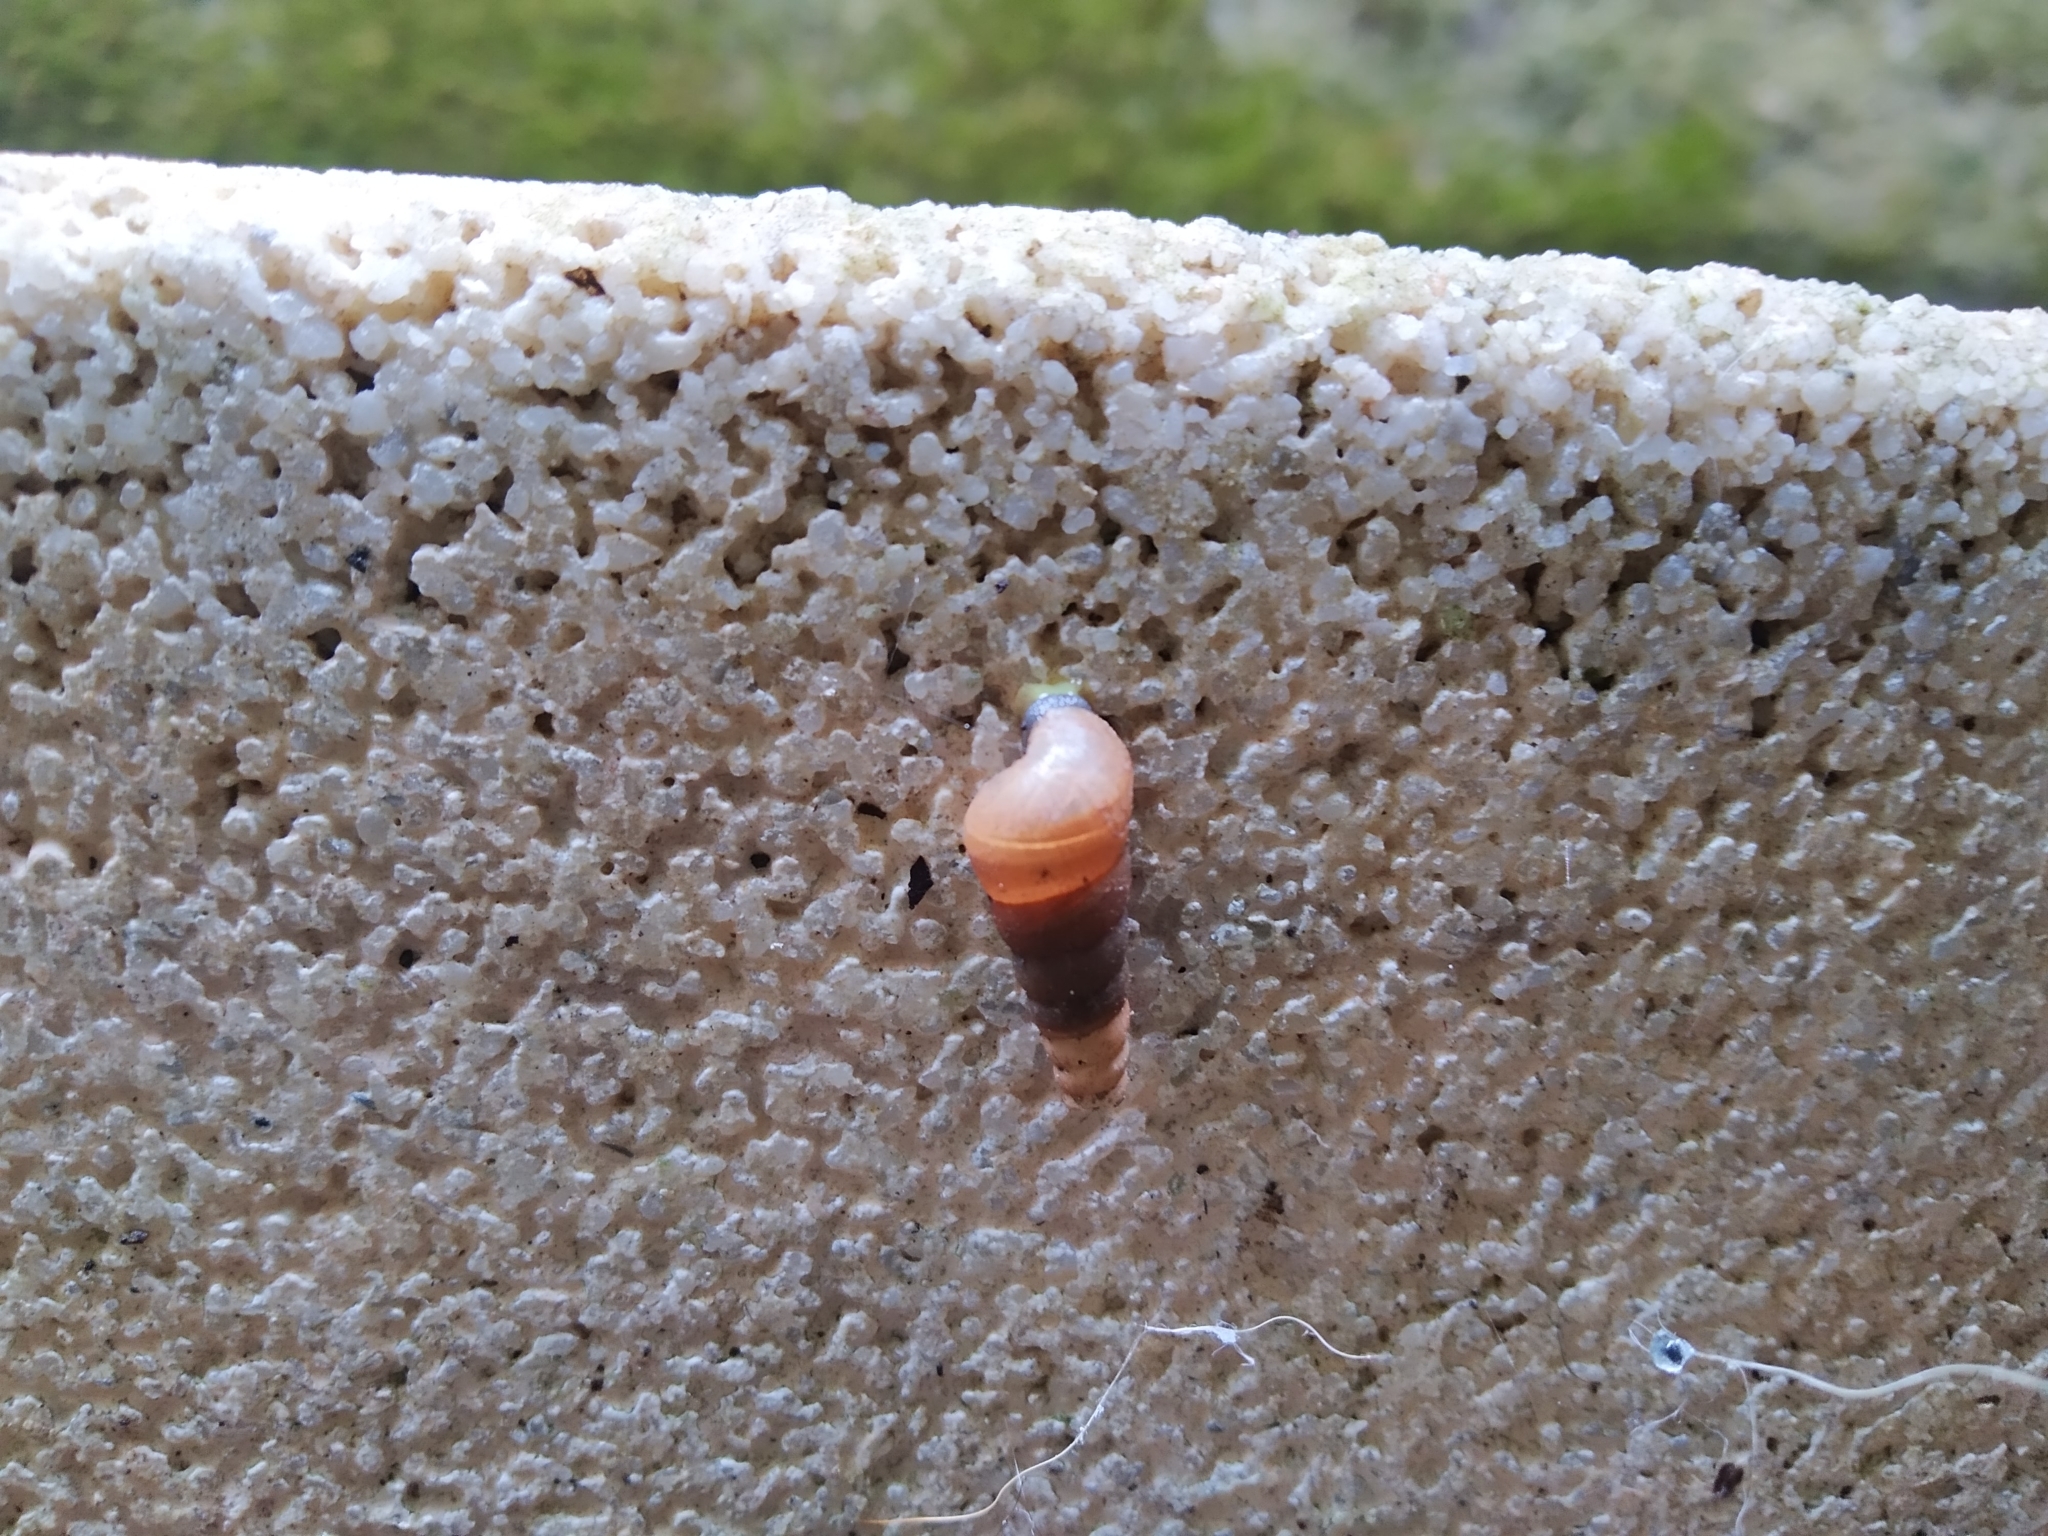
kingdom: Animalia
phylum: Mollusca
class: Gastropoda
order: Stylommatophora
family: Achatinidae
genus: Rumina
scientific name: Rumina decollata
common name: Decollate snail
